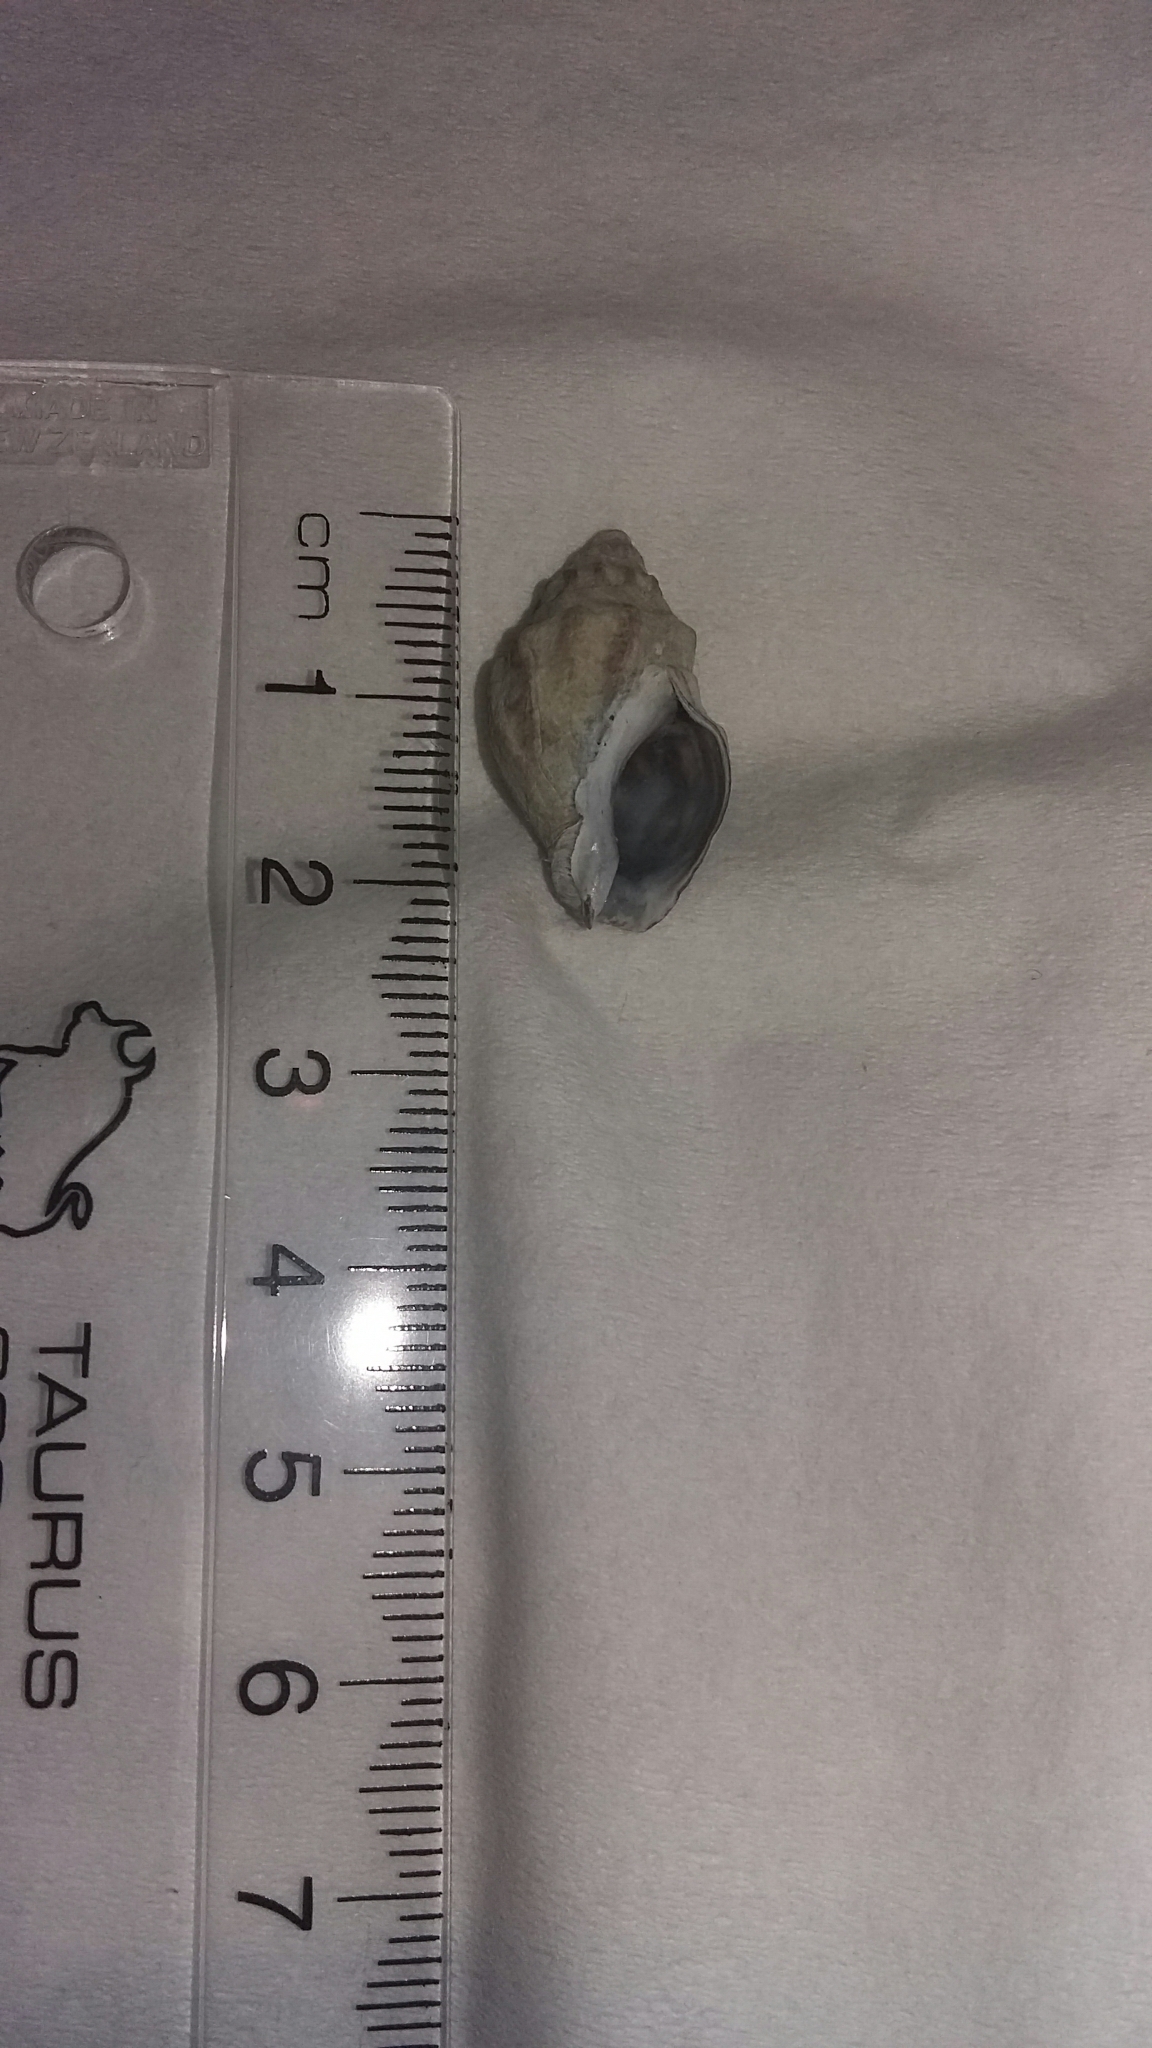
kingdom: Animalia
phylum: Mollusca
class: Gastropoda
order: Neogastropoda
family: Cominellidae
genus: Cominella
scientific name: Cominella glandiformis
